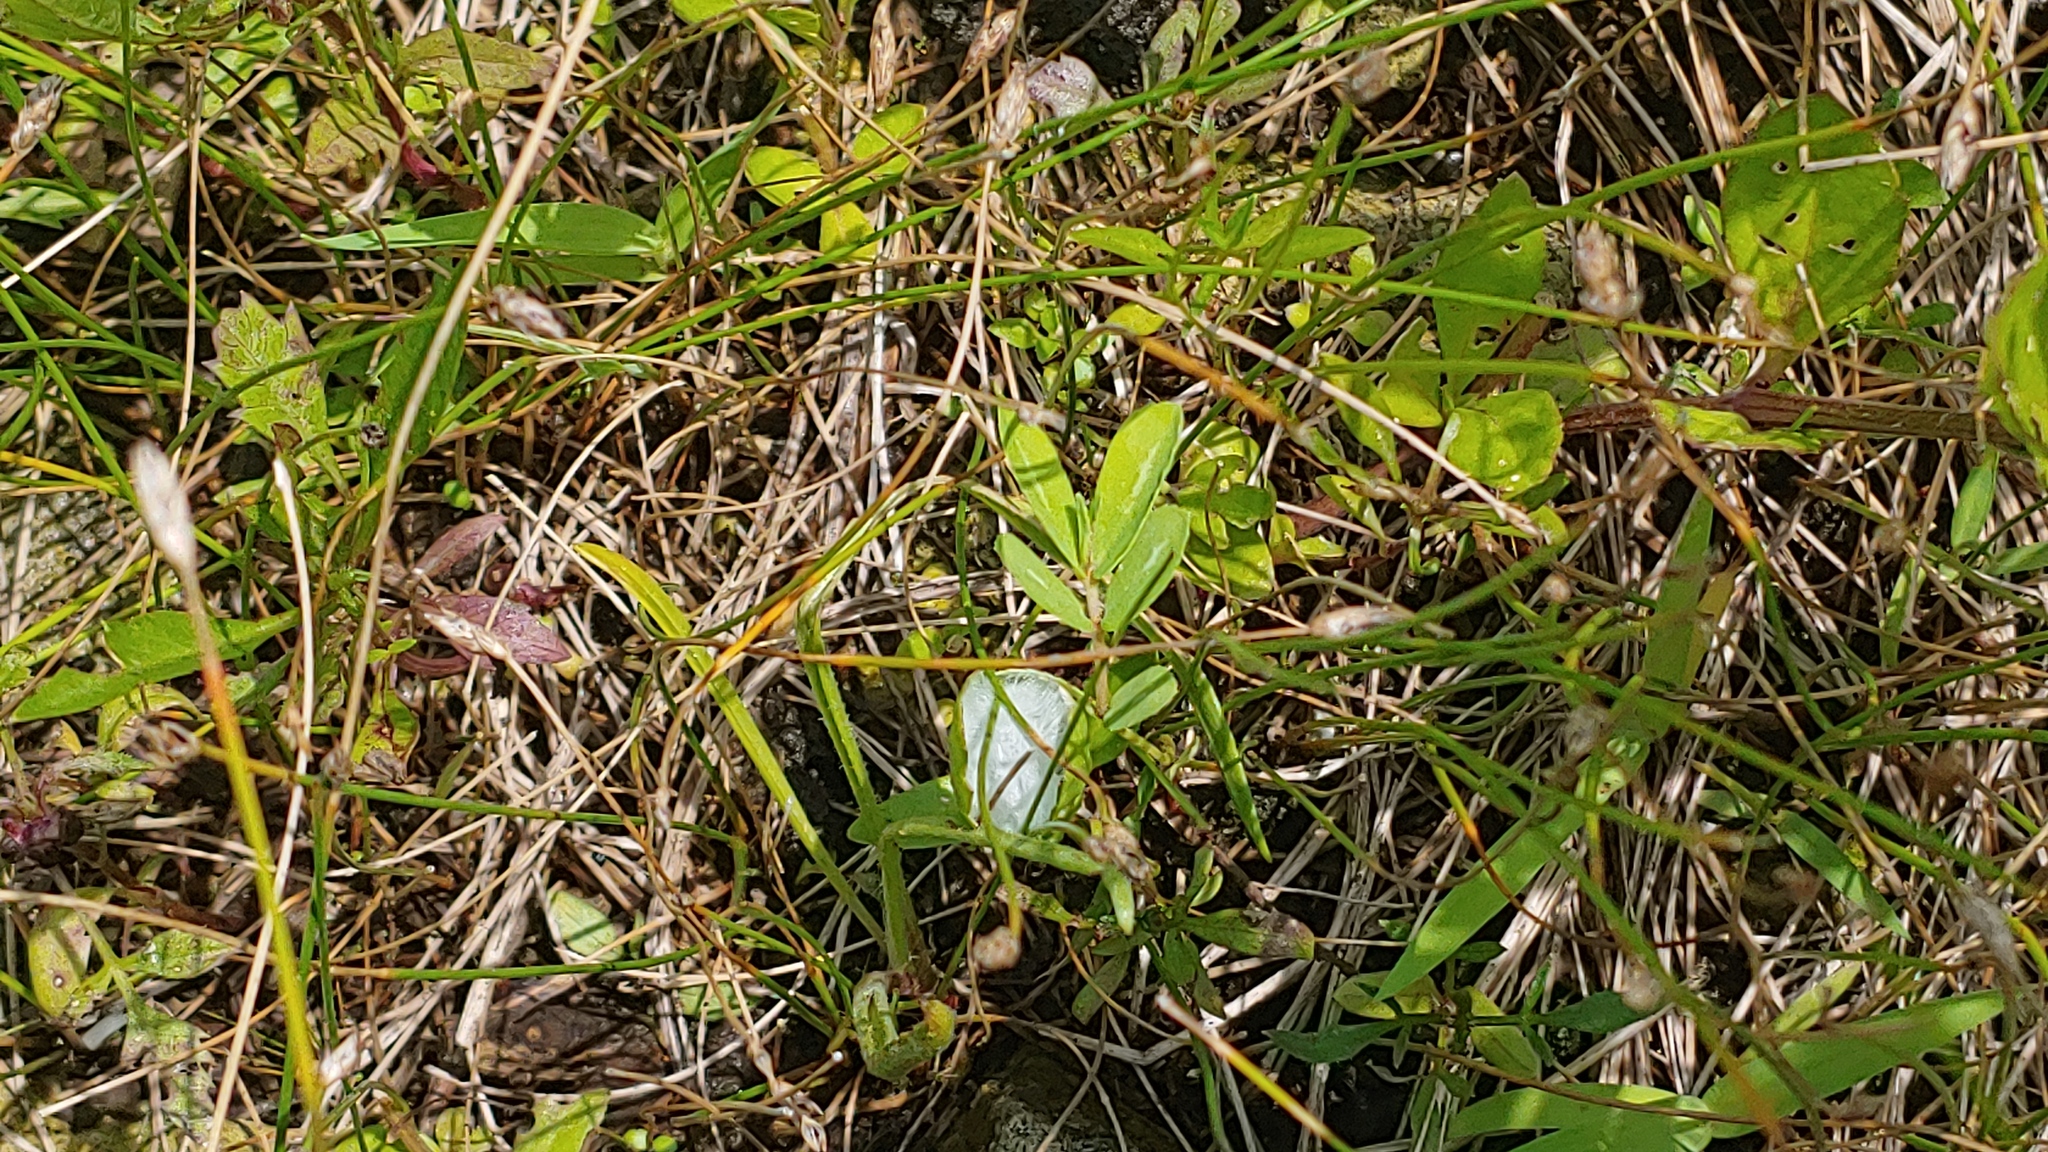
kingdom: Plantae
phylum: Tracheophyta
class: Magnoliopsida
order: Malpighiales
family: Euphorbiaceae
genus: Euphorbia
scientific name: Euphorbia nutans
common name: Eyebane
